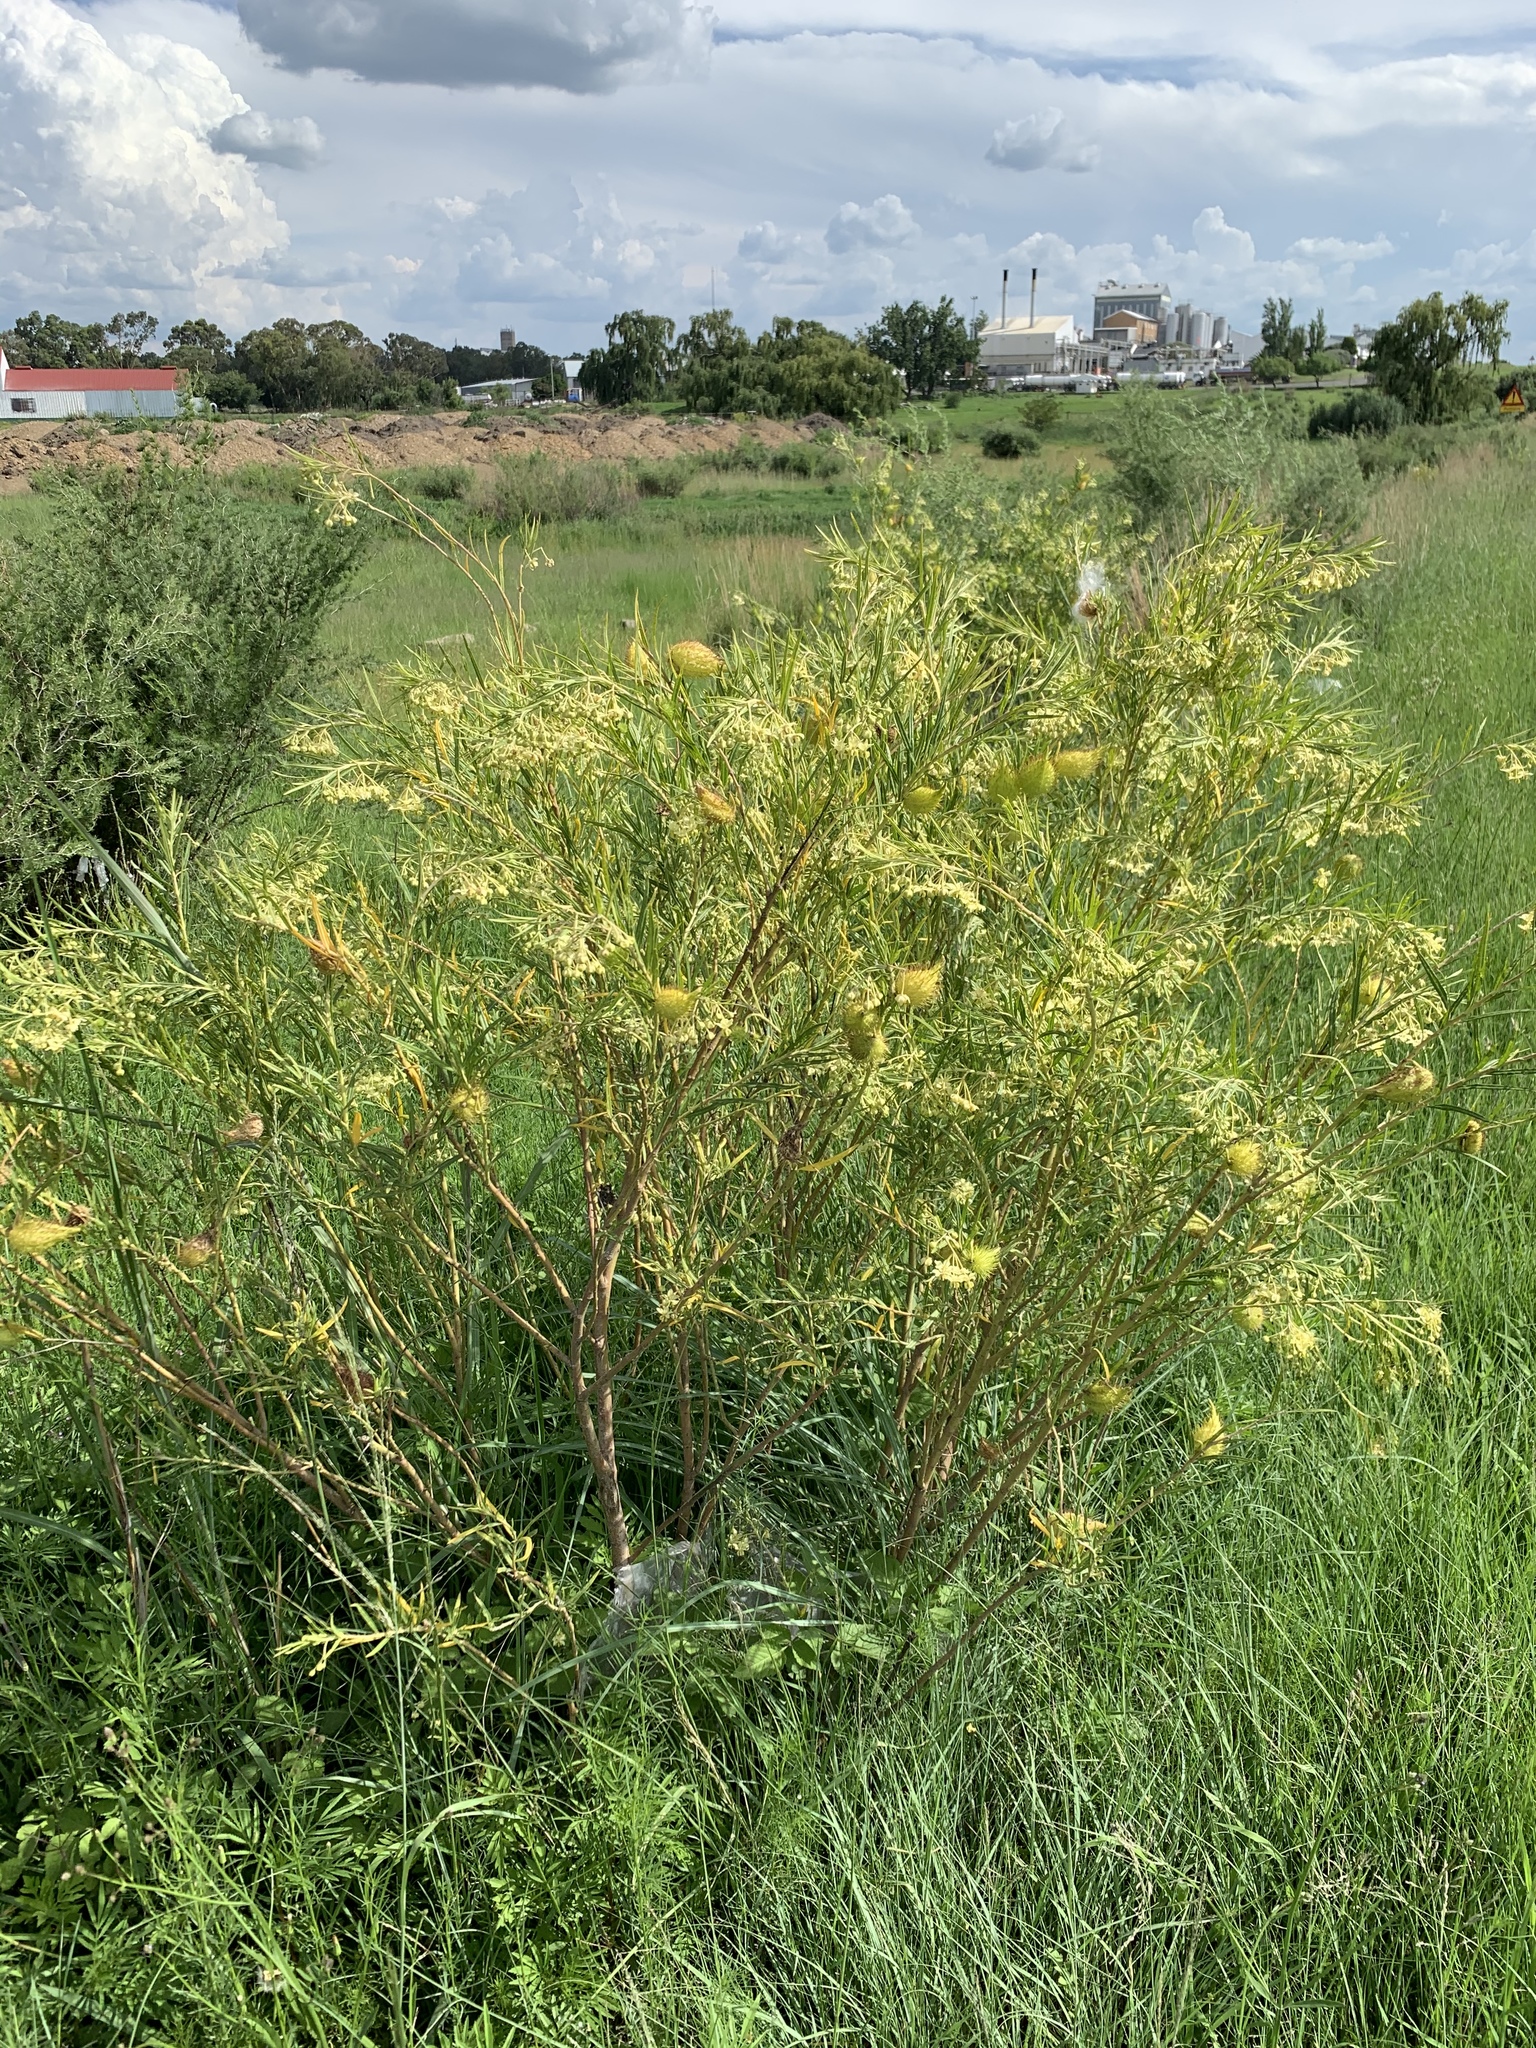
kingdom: Plantae
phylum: Tracheophyta
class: Magnoliopsida
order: Gentianales
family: Apocynaceae
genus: Gomphocarpus
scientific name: Gomphocarpus fruticosus
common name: Milkweed
